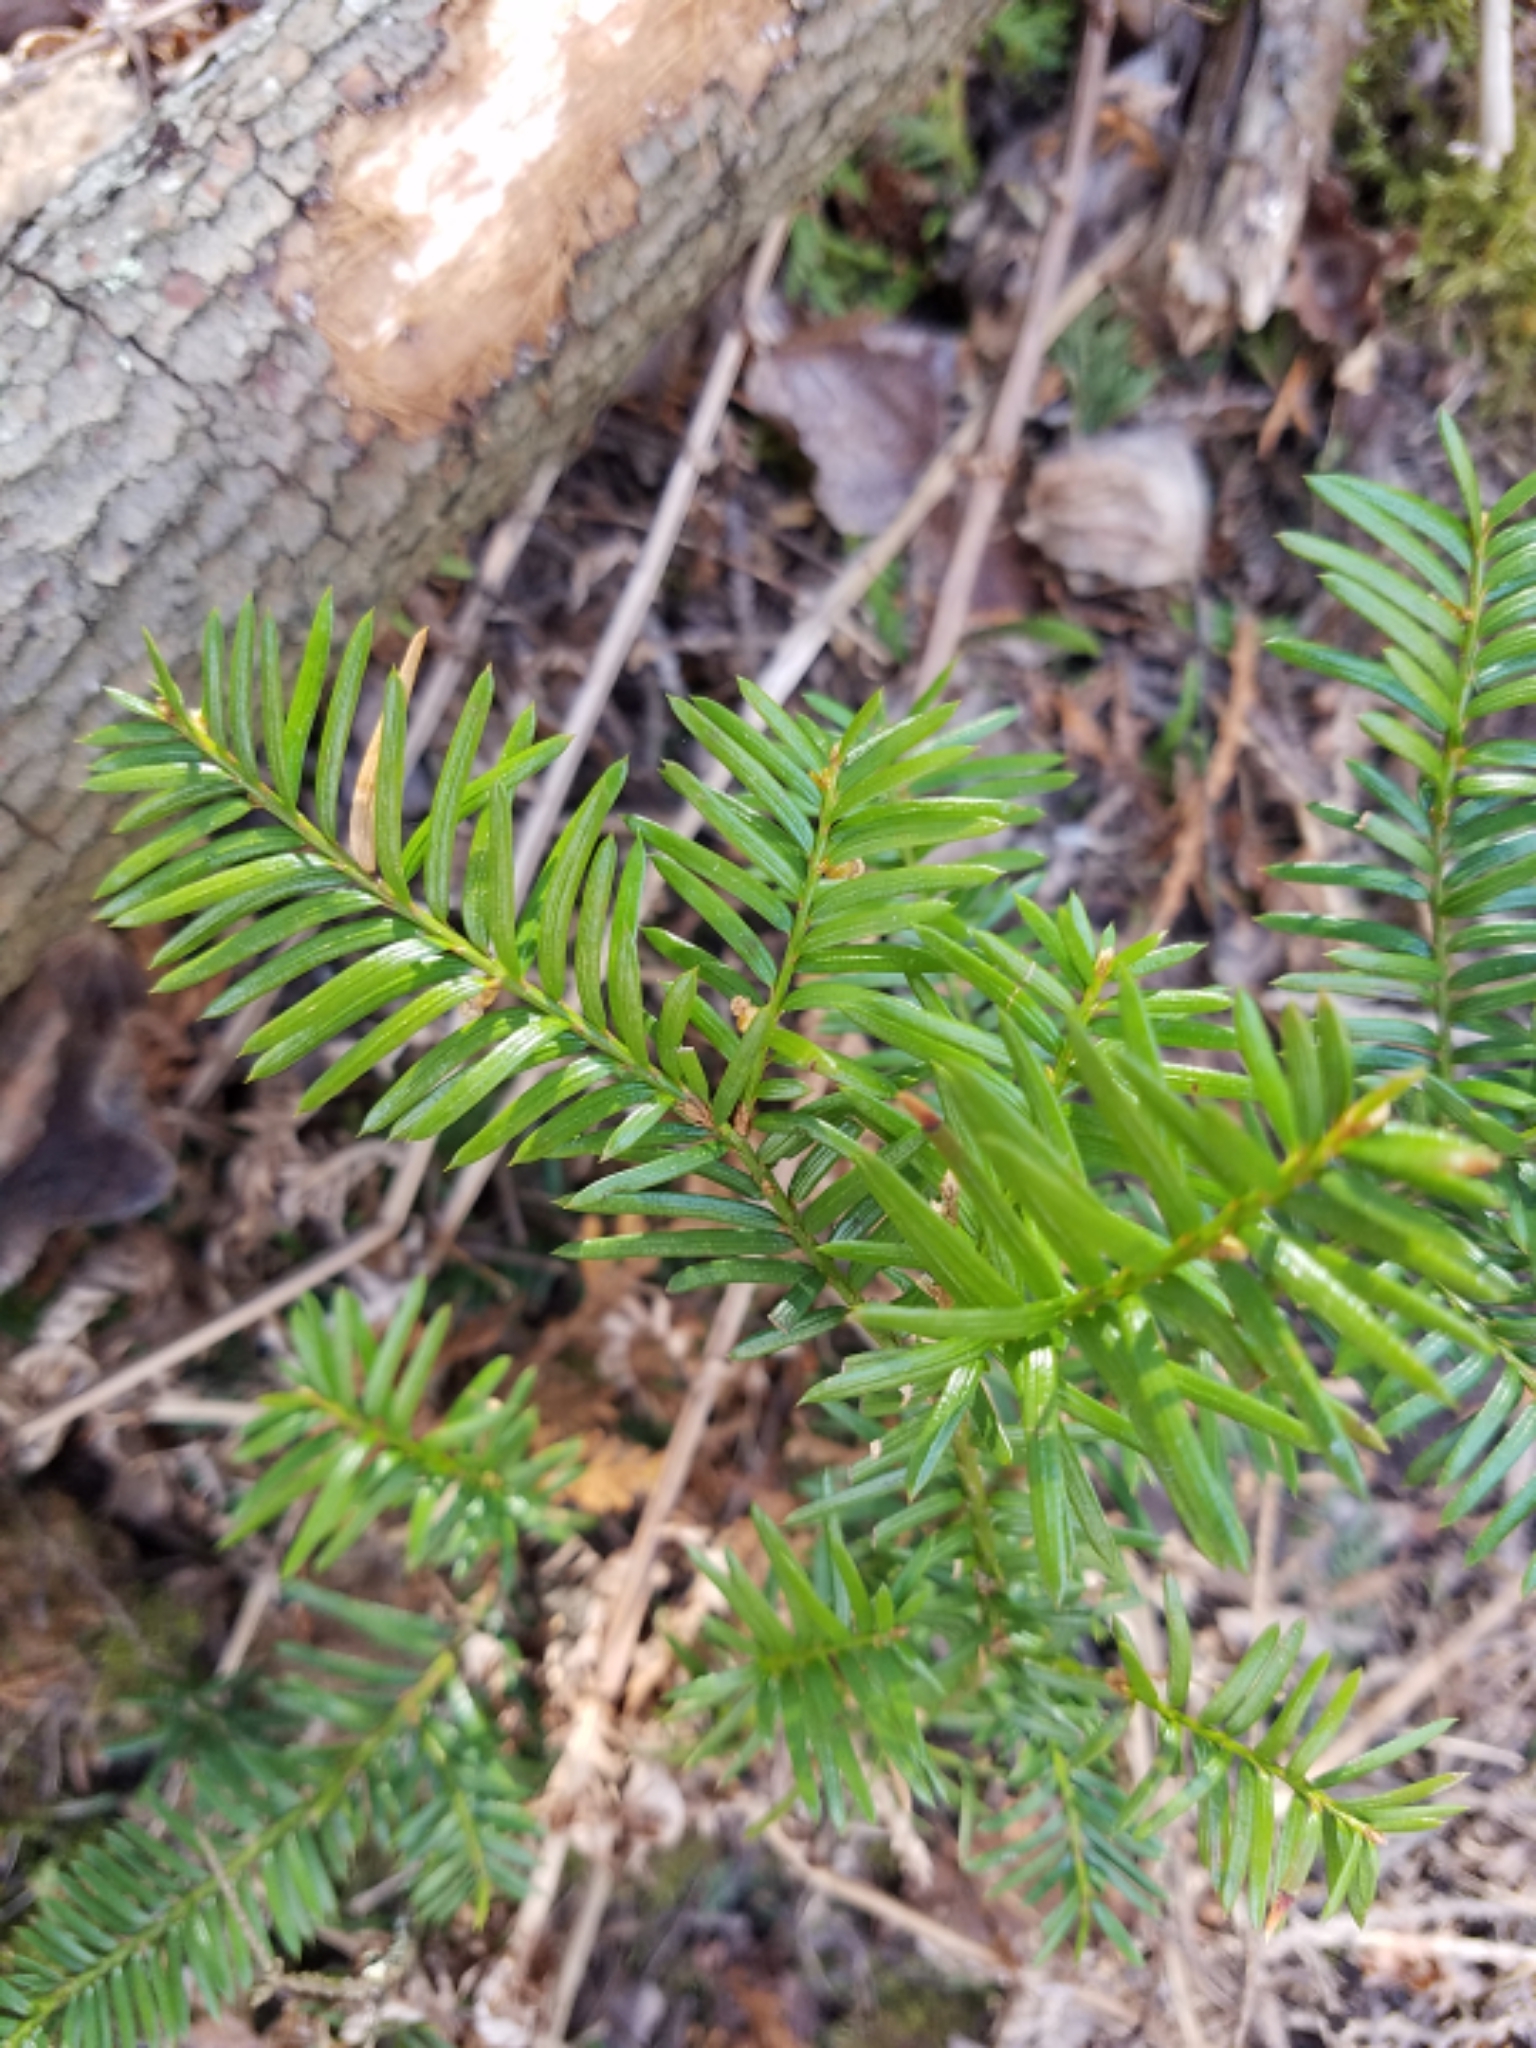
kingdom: Plantae
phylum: Tracheophyta
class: Pinopsida
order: Pinales
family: Taxaceae
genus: Taxus
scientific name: Taxus canadensis
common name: American yew
